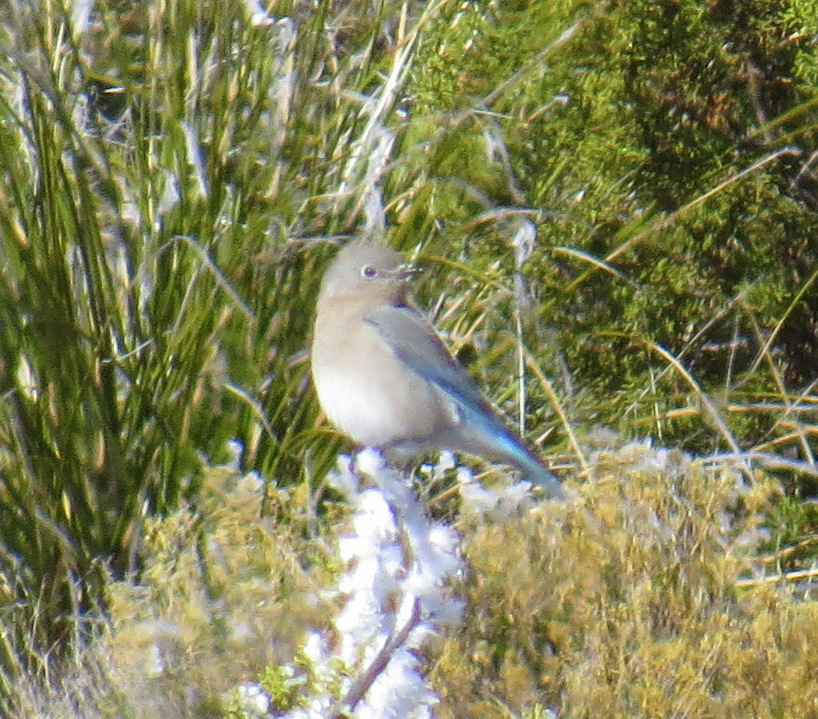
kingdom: Animalia
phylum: Chordata
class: Aves
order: Passeriformes
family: Turdidae
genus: Sialia
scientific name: Sialia currucoides
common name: Mountain bluebird
